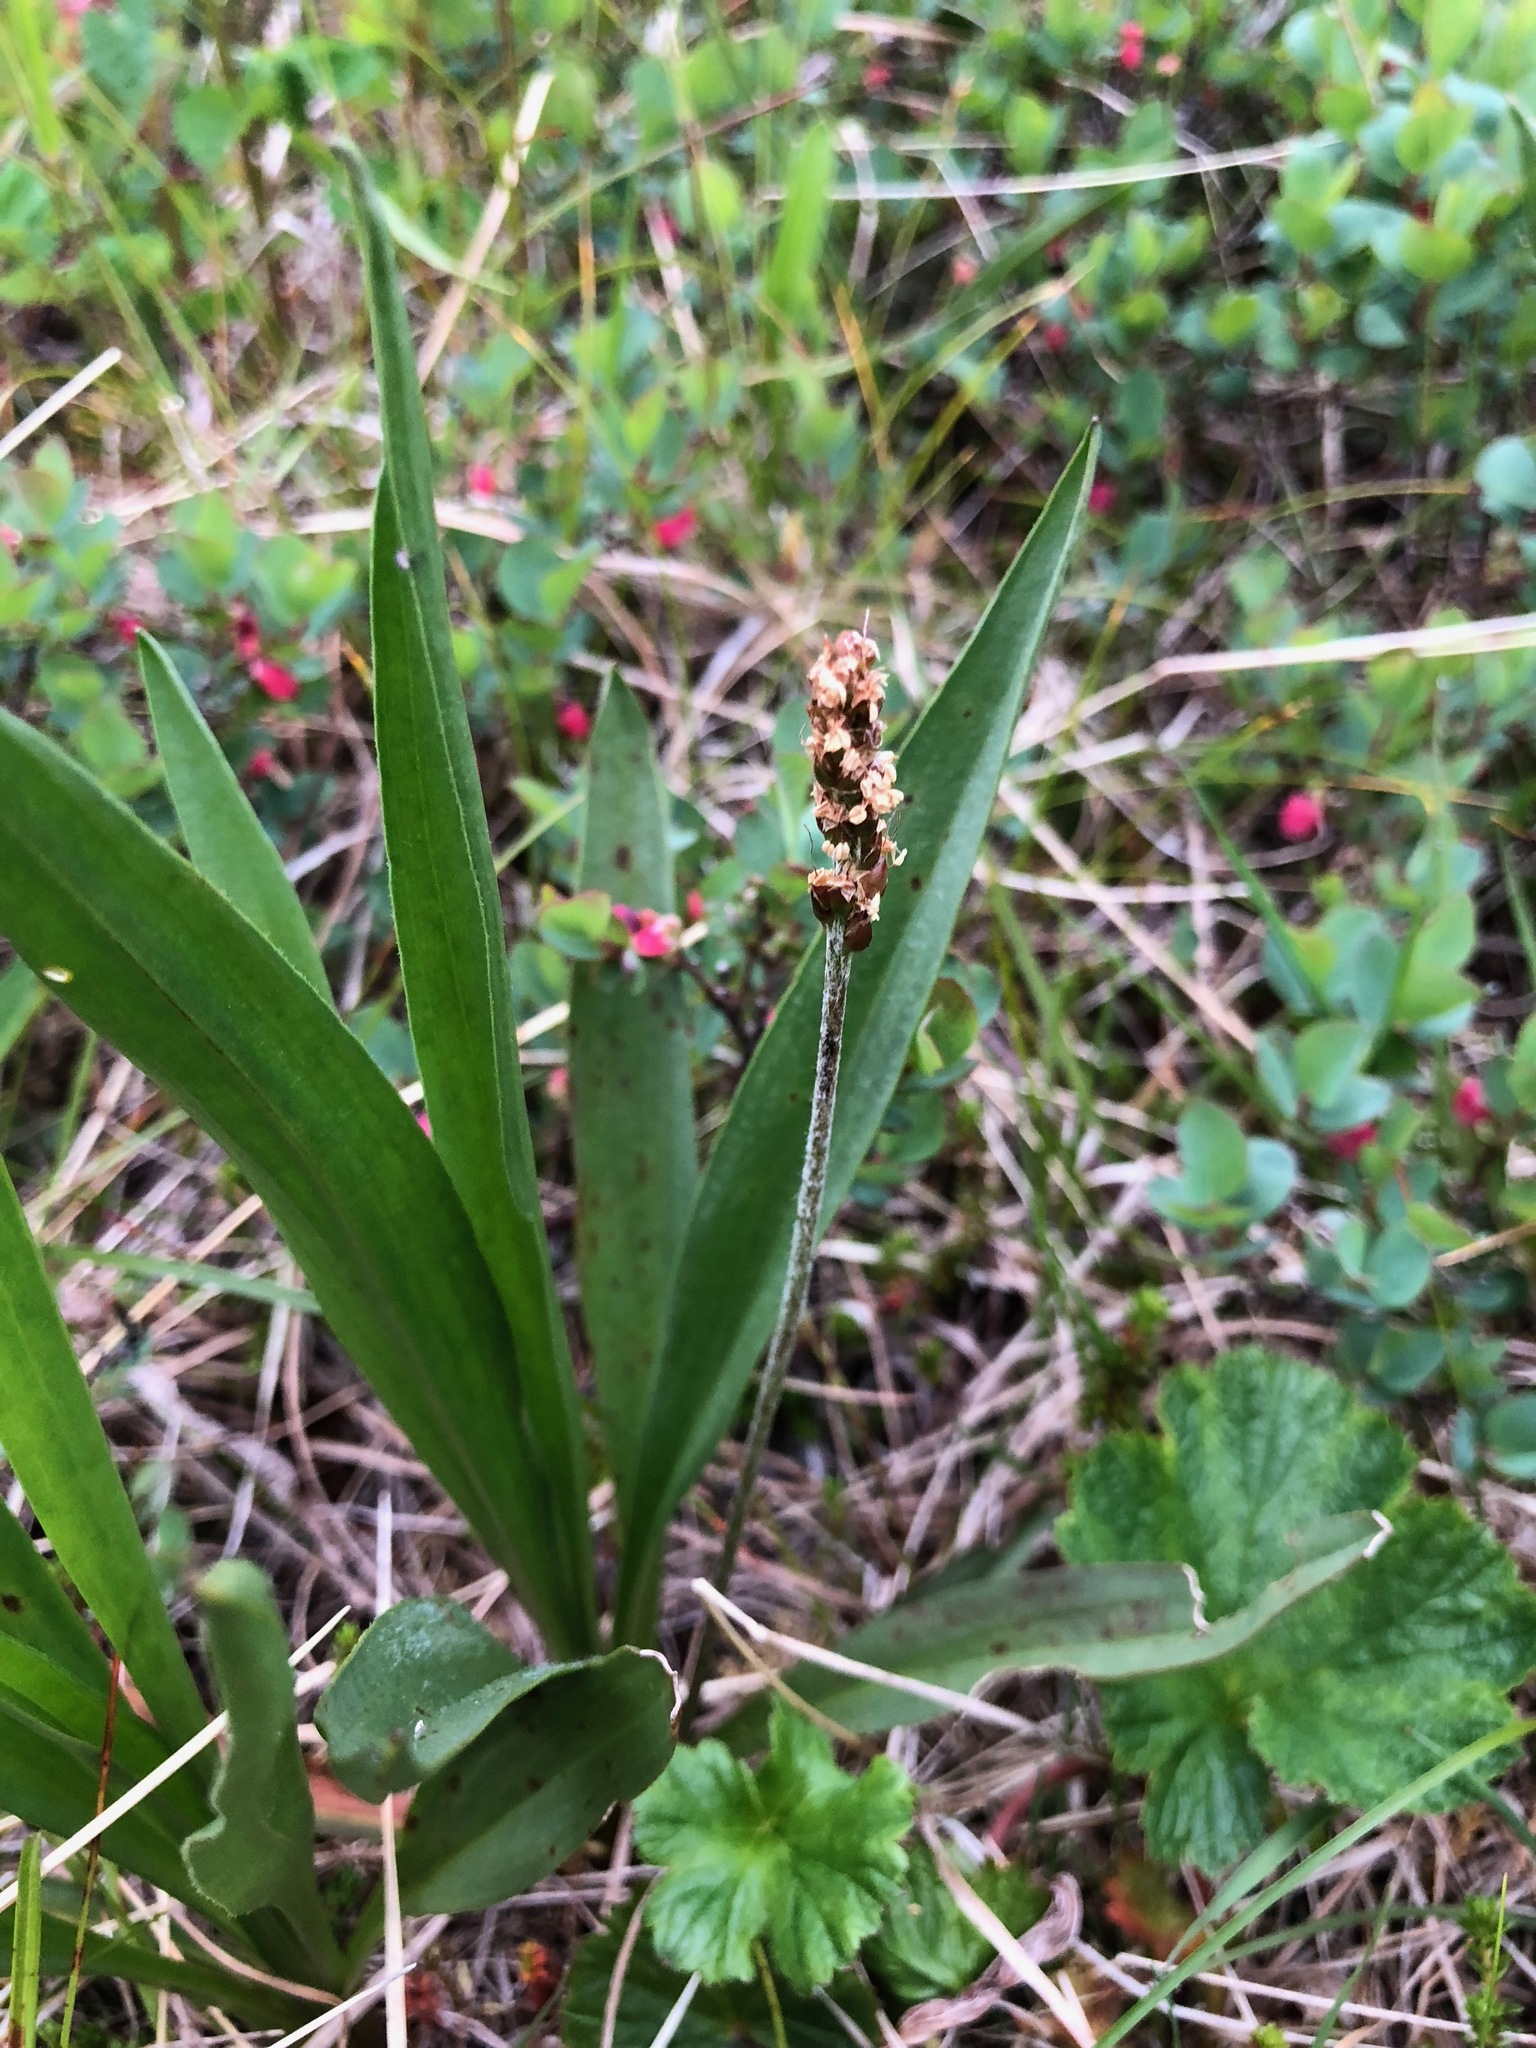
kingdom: Plantae
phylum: Tracheophyta
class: Magnoliopsida
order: Lamiales
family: Plantaginaceae
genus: Plantago
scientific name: Plantago macrocarpa
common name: Alaska plantain
